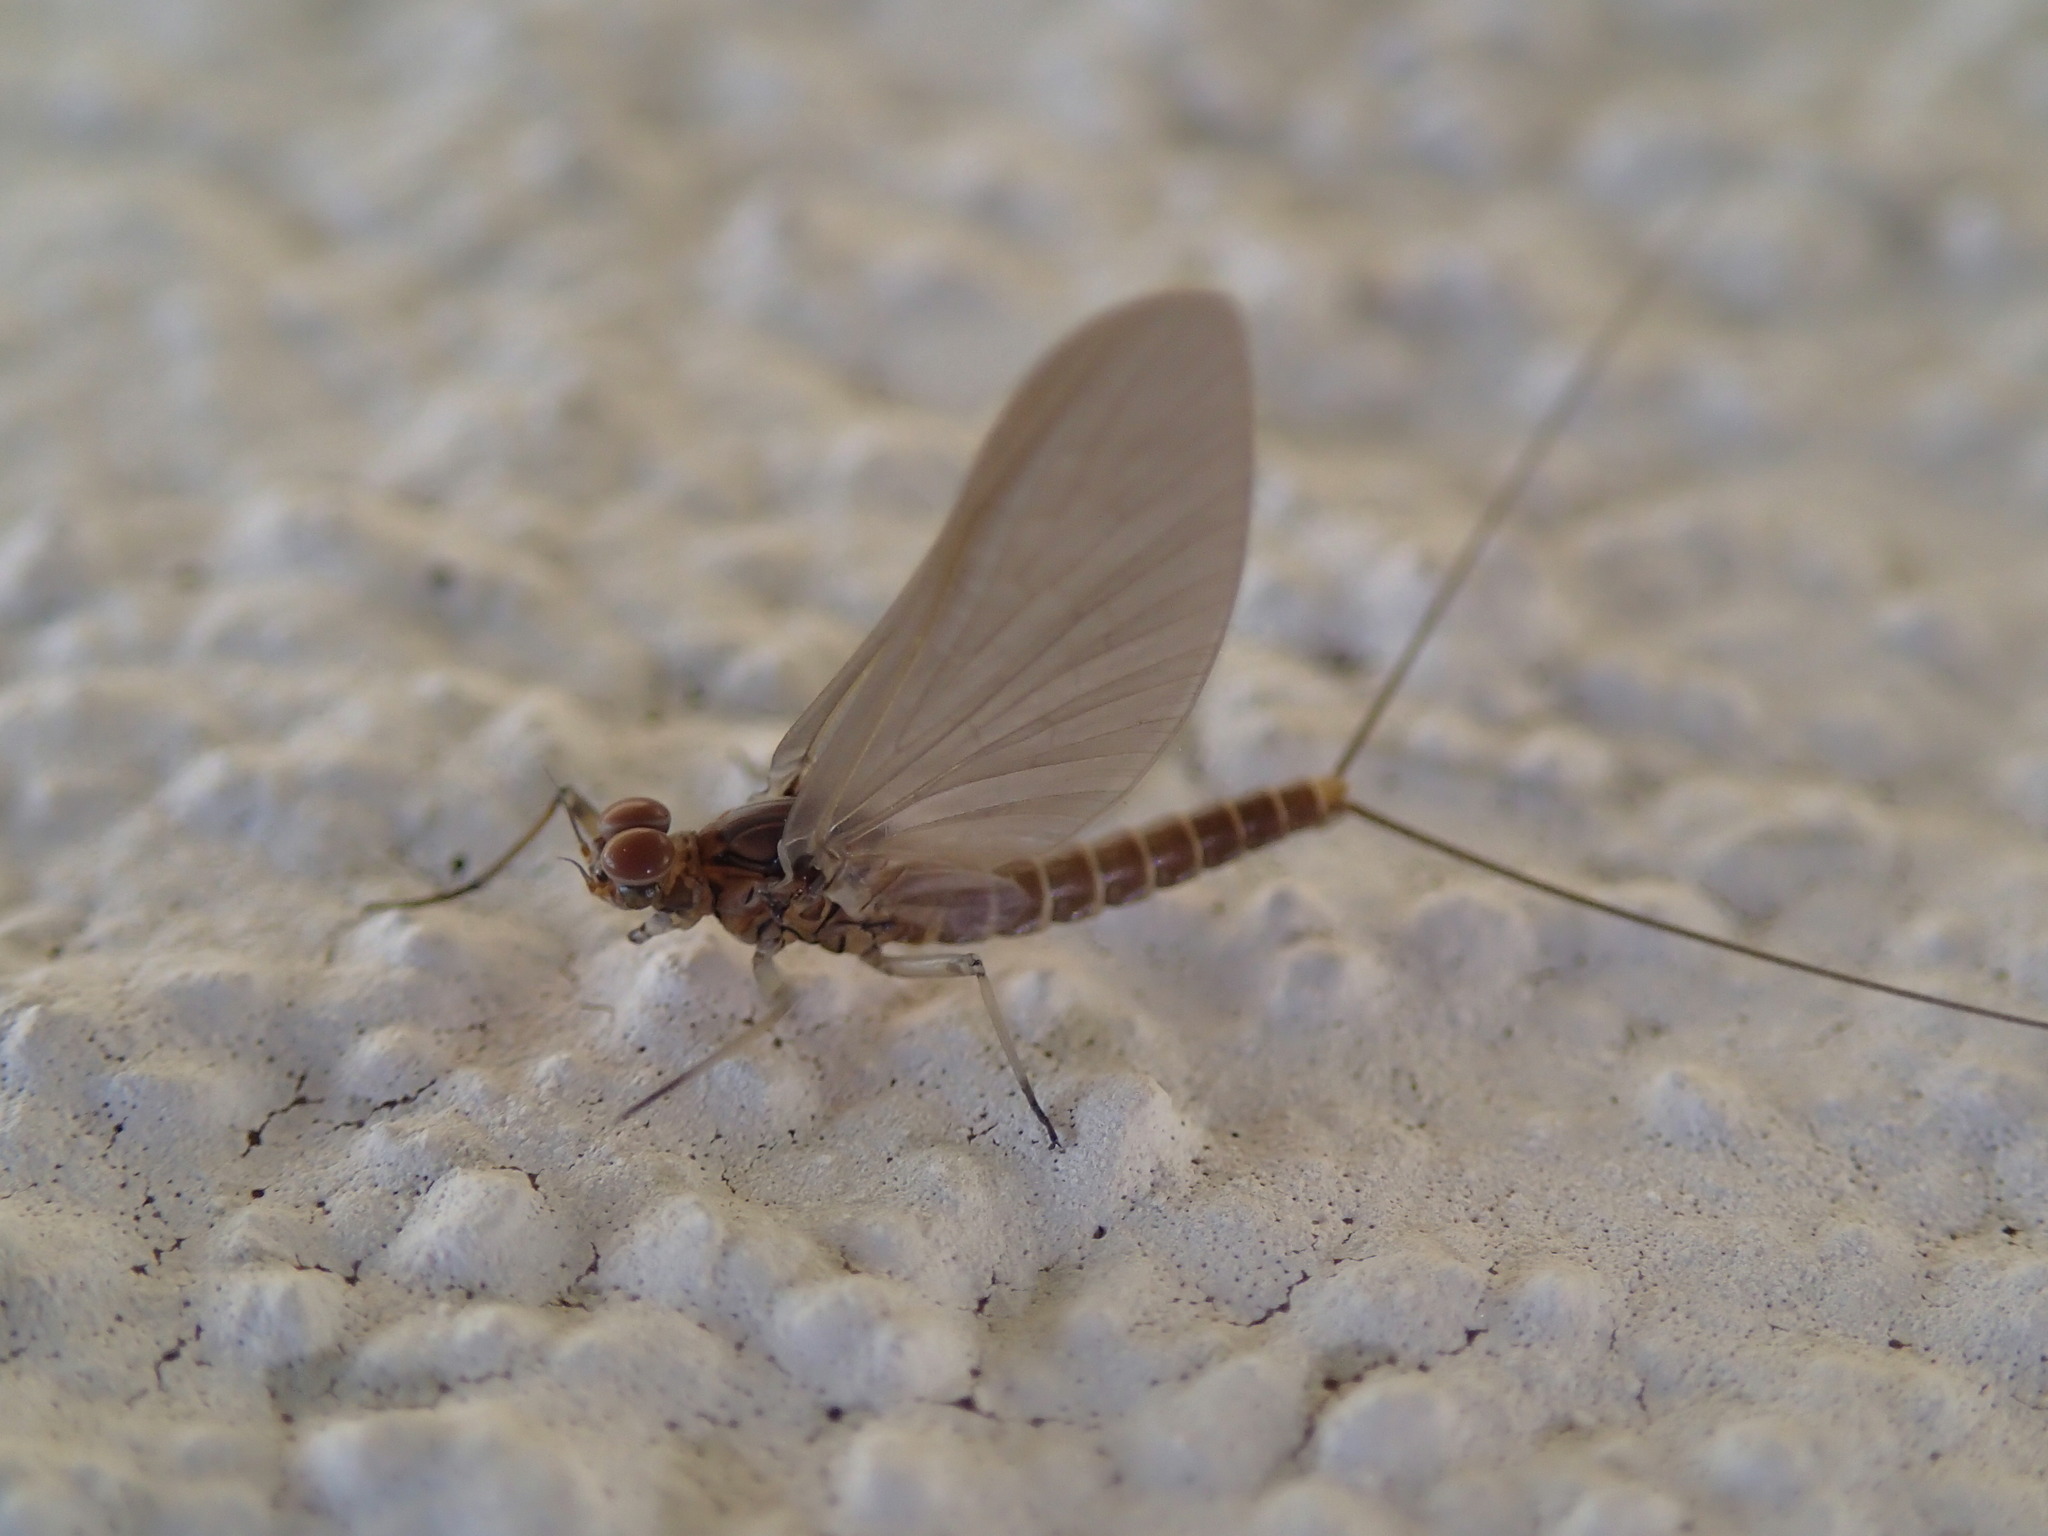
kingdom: Animalia
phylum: Arthropoda
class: Insecta
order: Ephemeroptera
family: Baetidae
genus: Baetis
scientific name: Baetis rhodani
